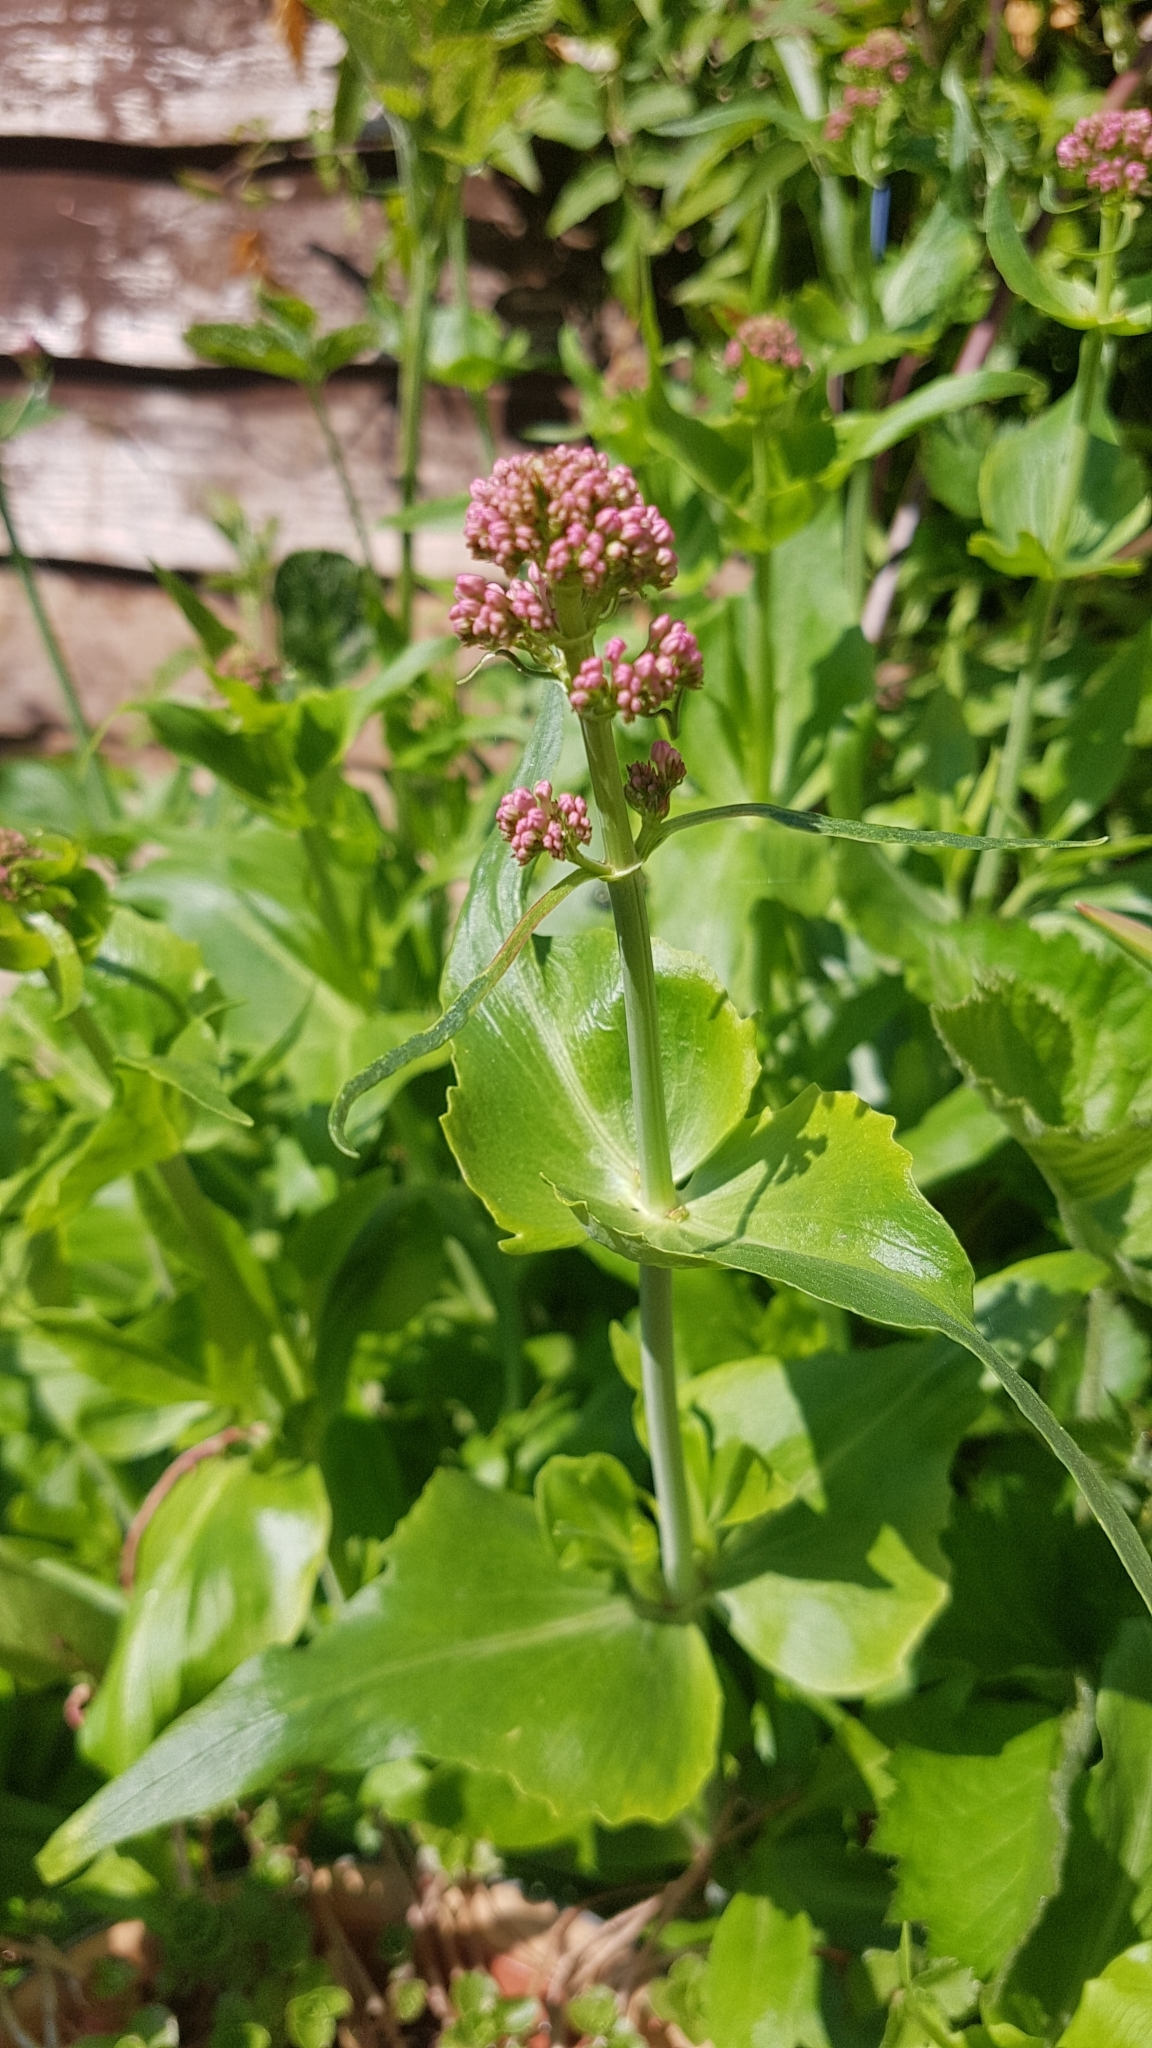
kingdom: Plantae
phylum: Tracheophyta
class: Magnoliopsida
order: Dipsacales
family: Caprifoliaceae
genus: Centranthus
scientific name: Centranthus ruber
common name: Red valerian
